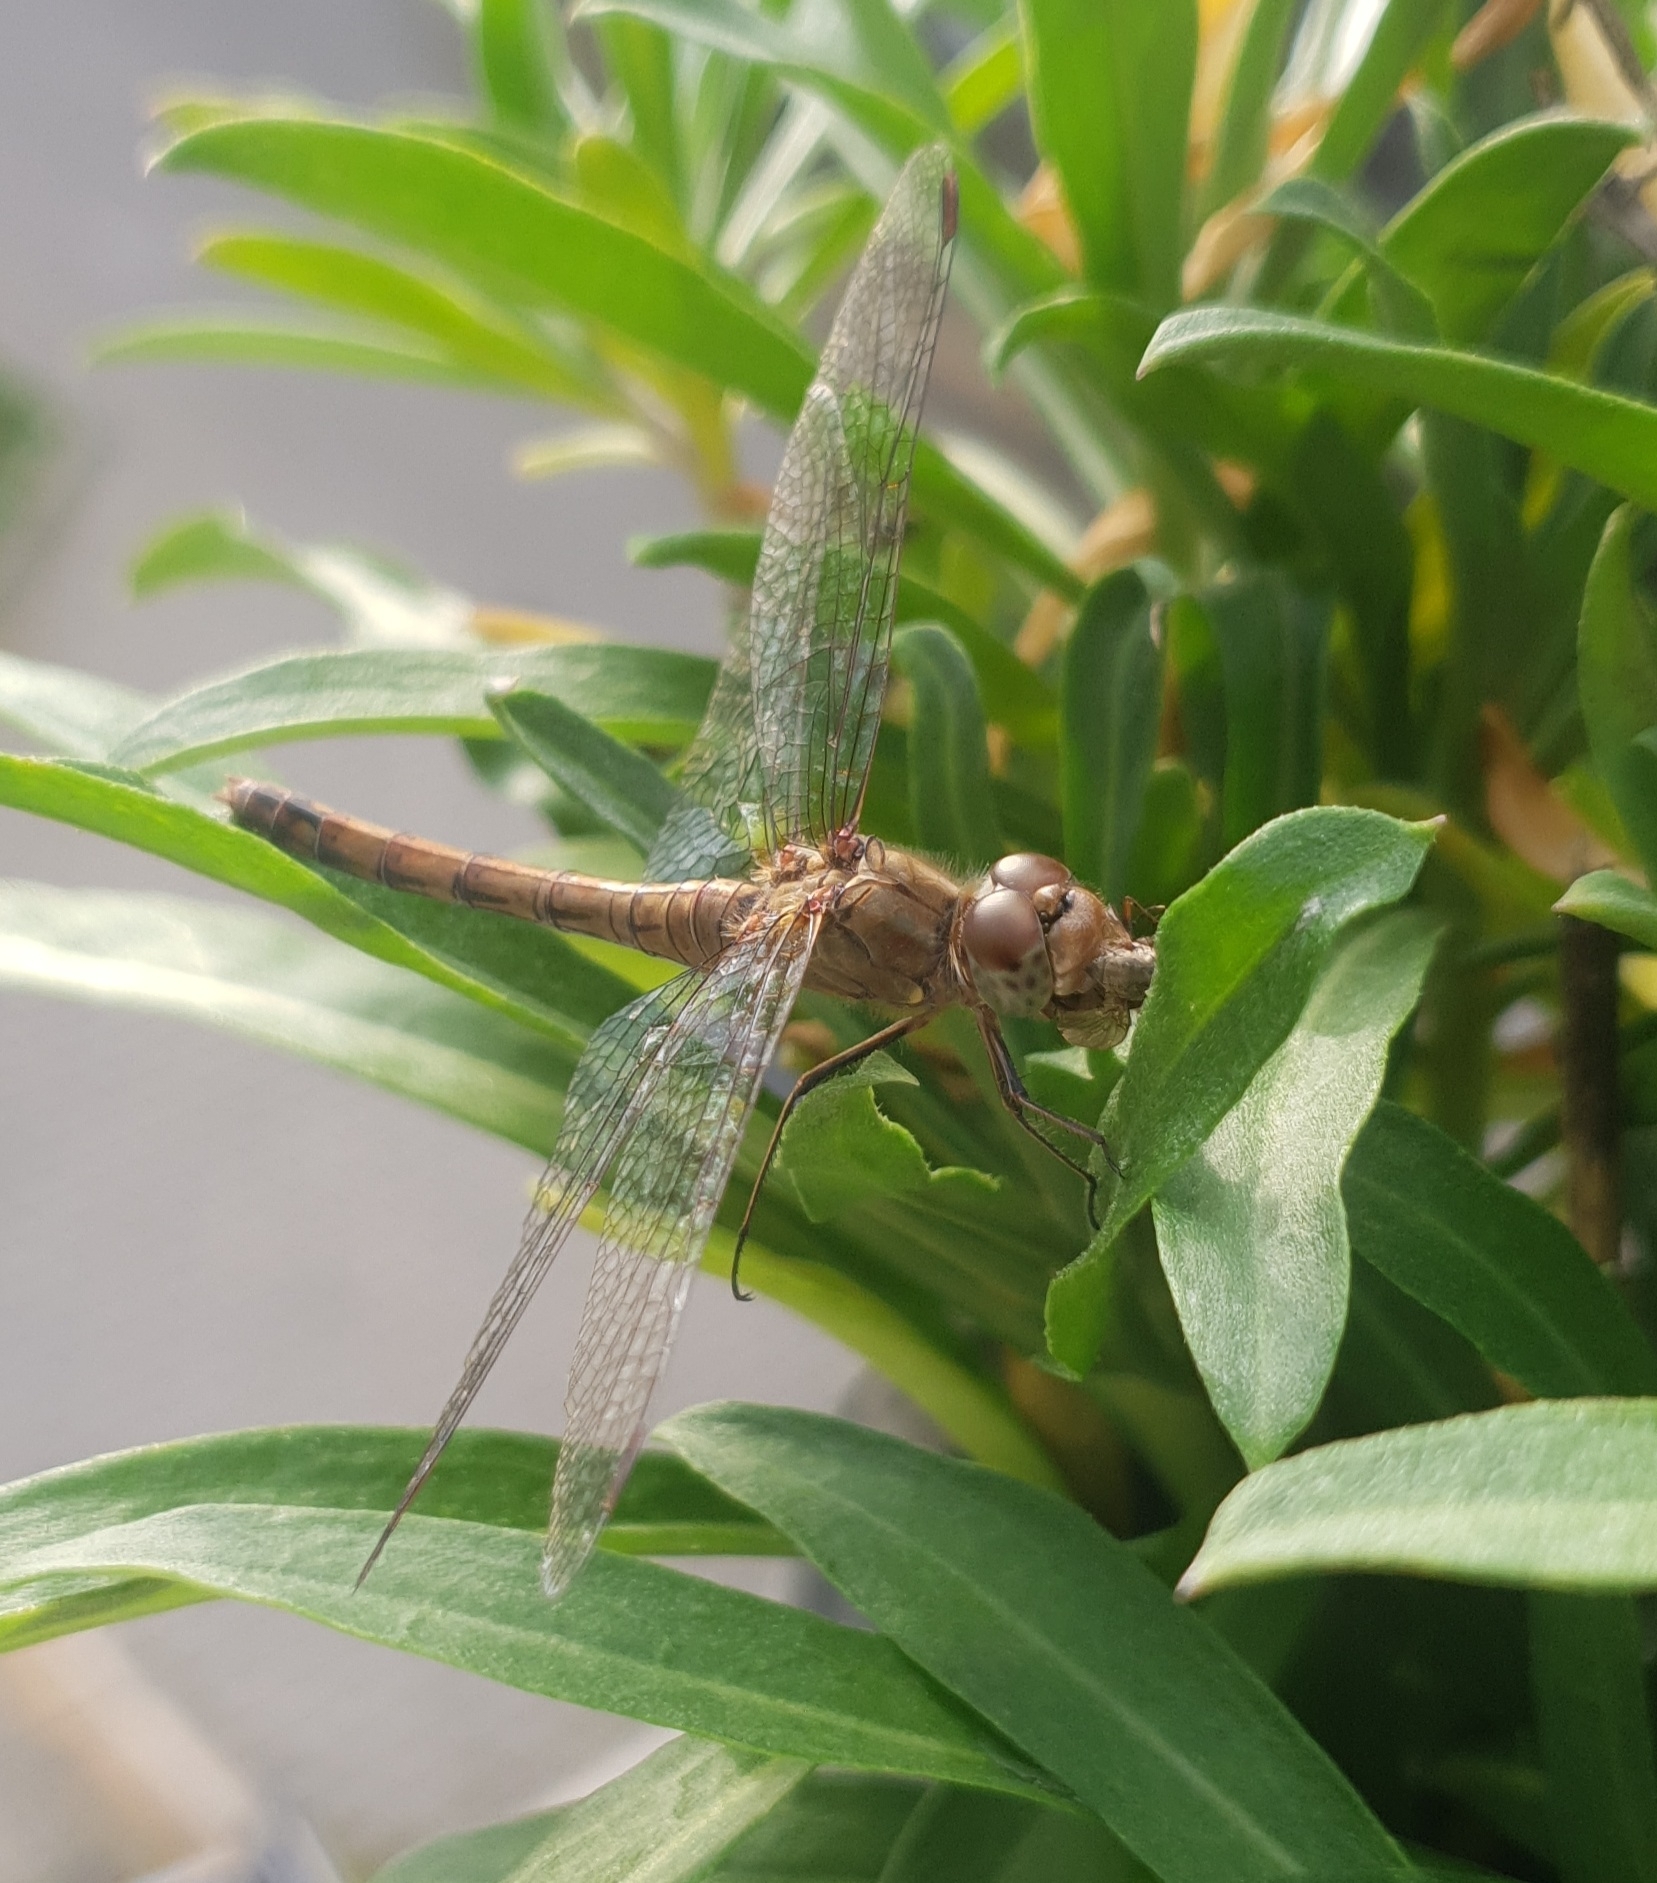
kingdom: Animalia
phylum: Arthropoda
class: Insecta
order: Odonata
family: Libellulidae
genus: Sympetrum
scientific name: Sympetrum striolatum
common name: Common darter
